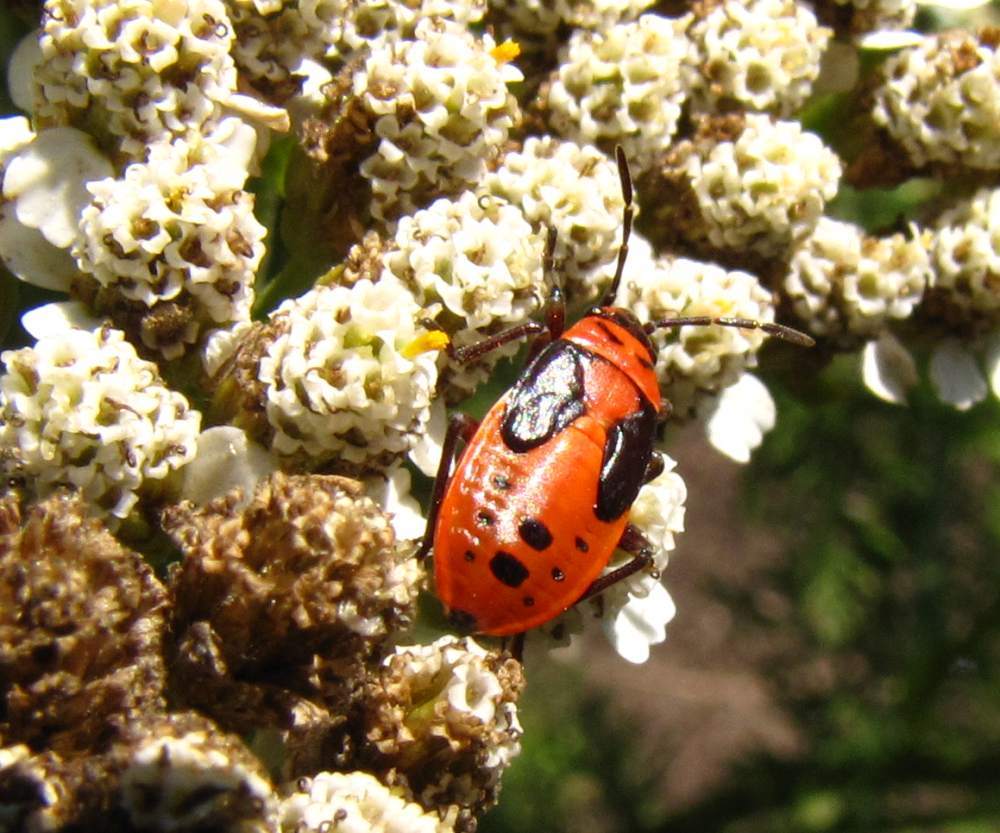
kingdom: Animalia
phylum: Arthropoda
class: Insecta
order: Hemiptera
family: Lygaeidae
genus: Lygaeus
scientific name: Lygaeus kalmii
